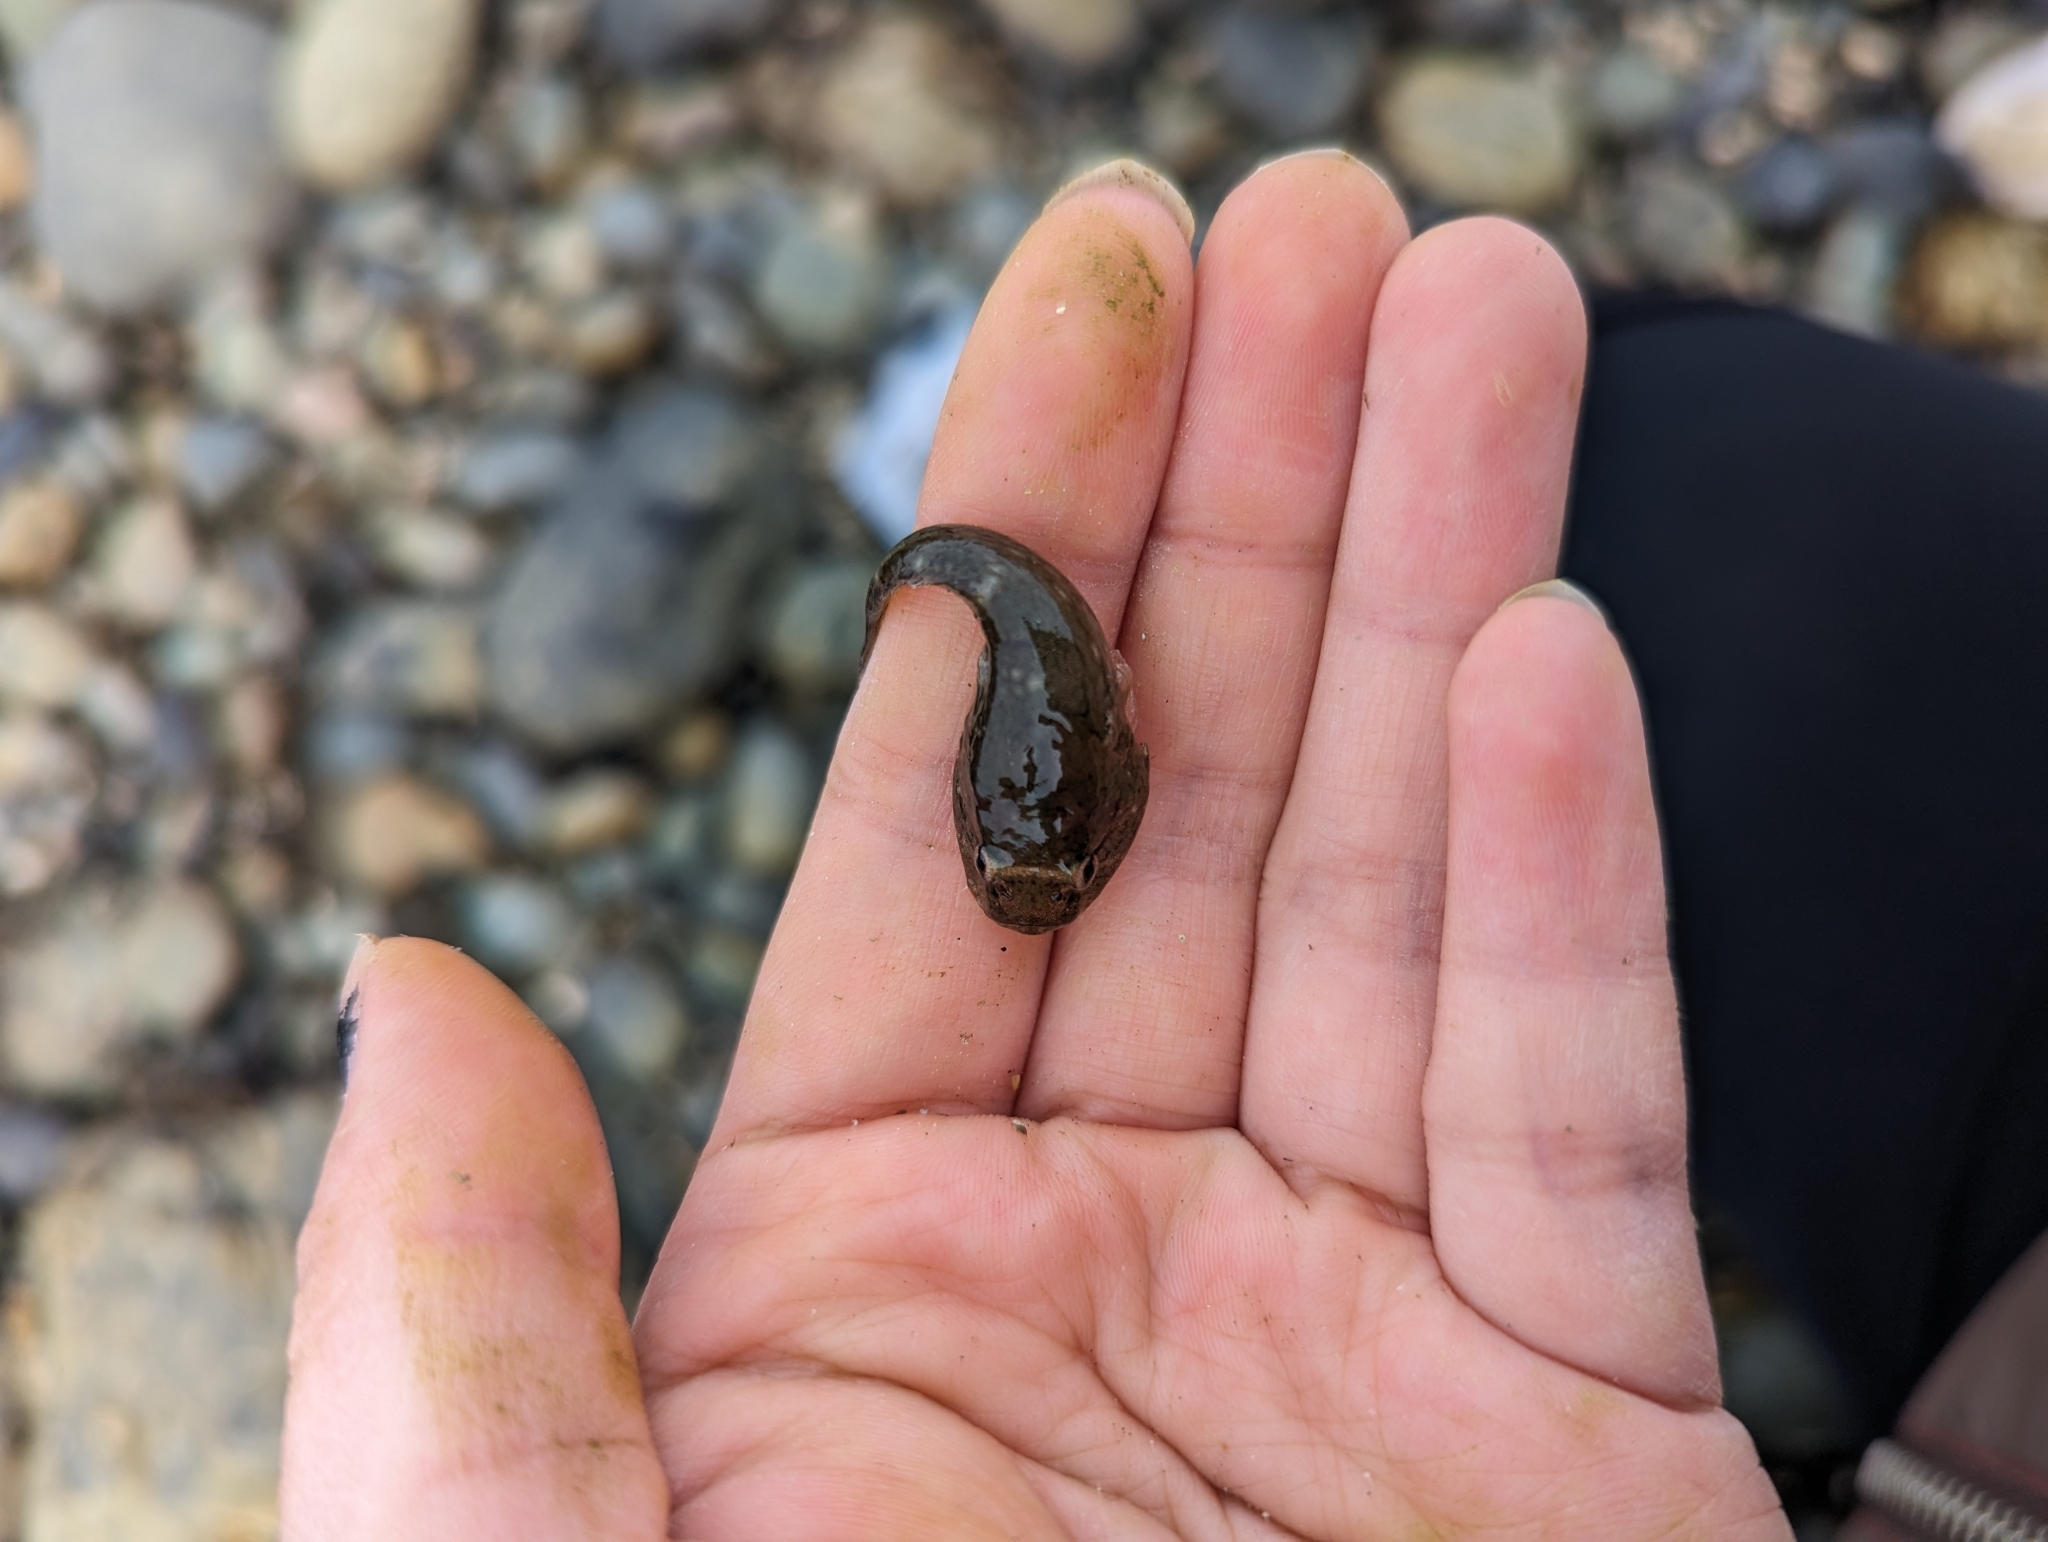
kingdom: Animalia
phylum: Chordata
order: Gobiesociformes
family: Gobiesocidae
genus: Gobiesox
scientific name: Gobiesox maeandricus
